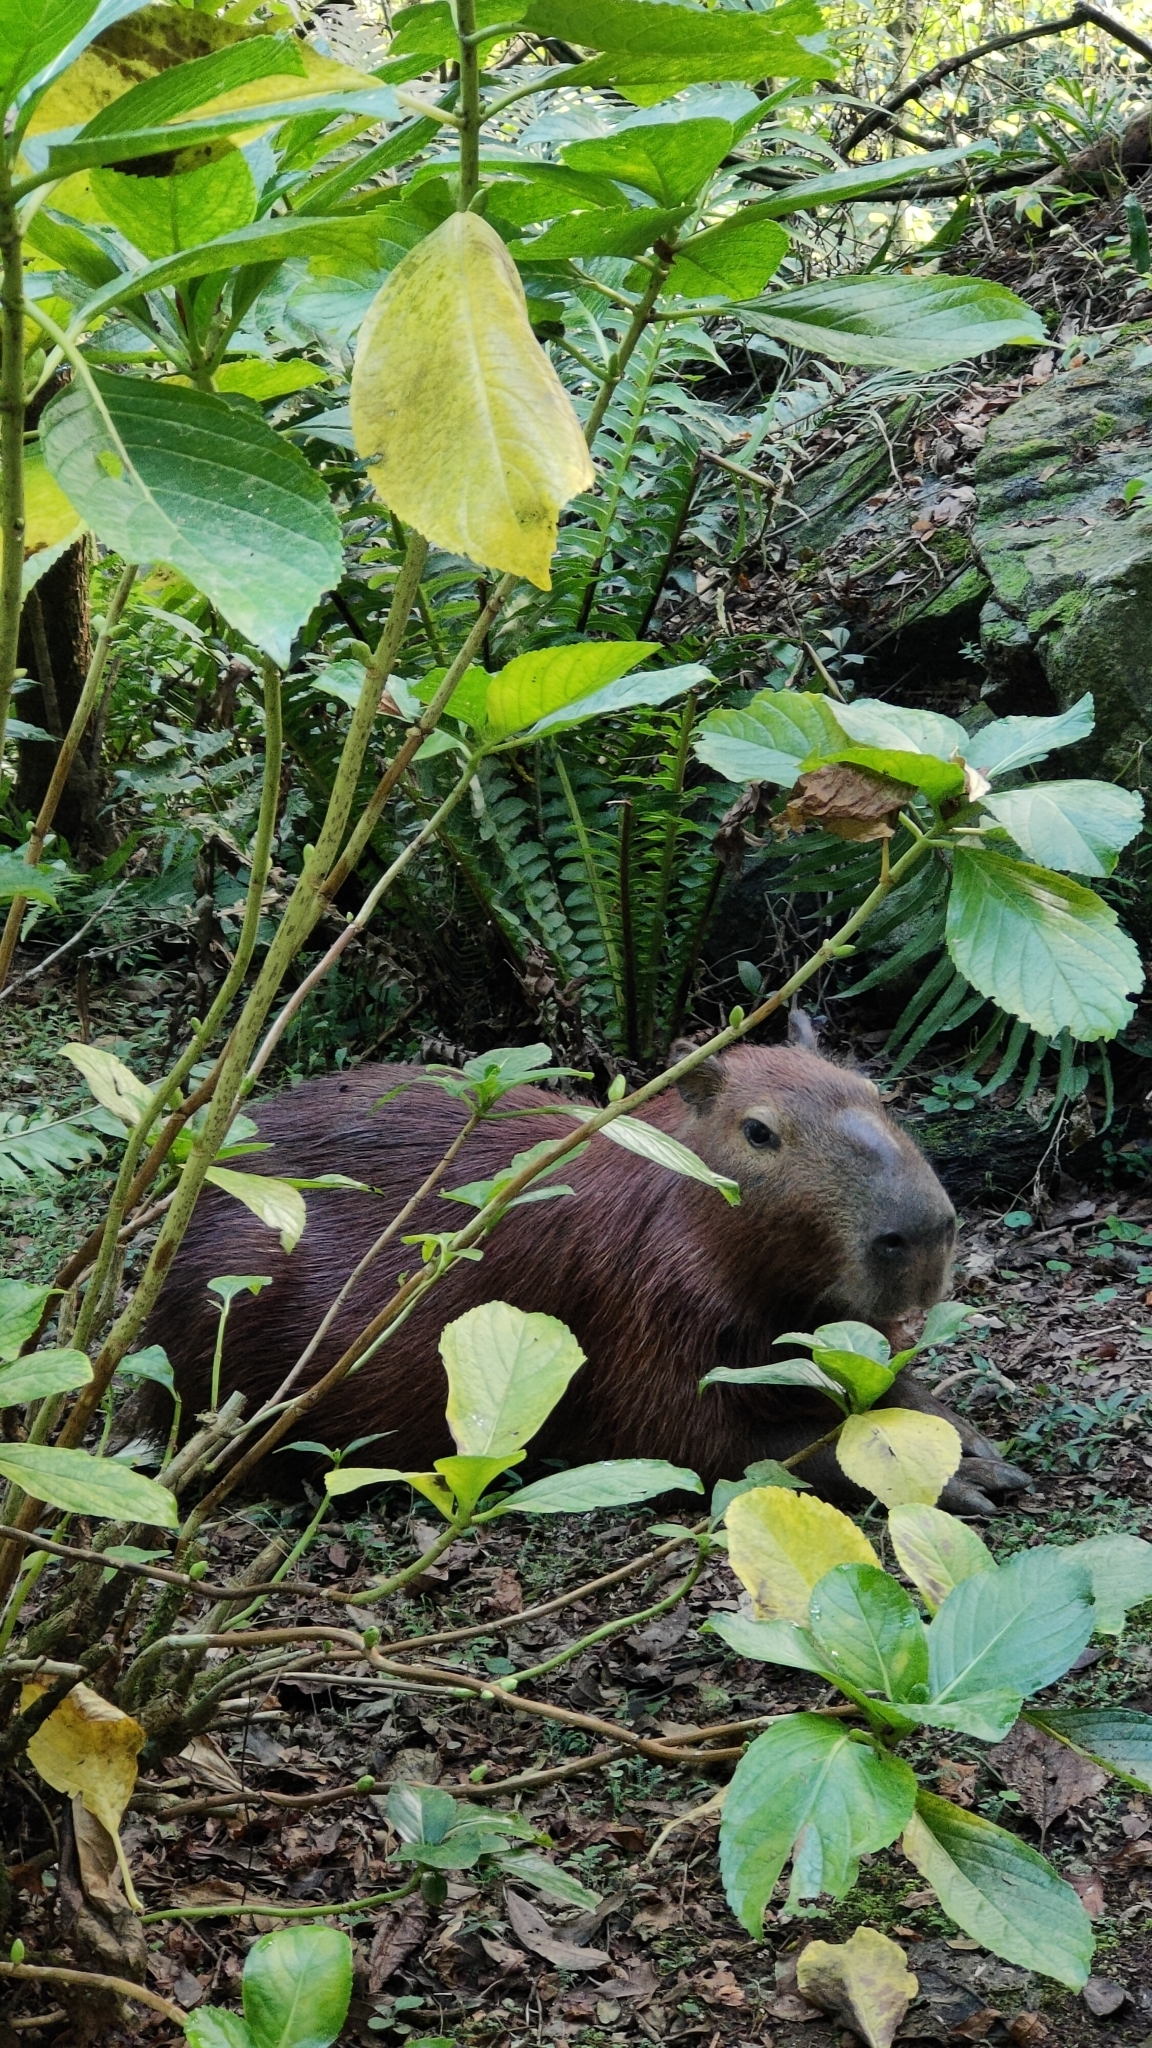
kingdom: Animalia
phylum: Chordata
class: Mammalia
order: Rodentia
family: Caviidae
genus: Hydrochoerus
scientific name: Hydrochoerus hydrochaeris
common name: Capybara
